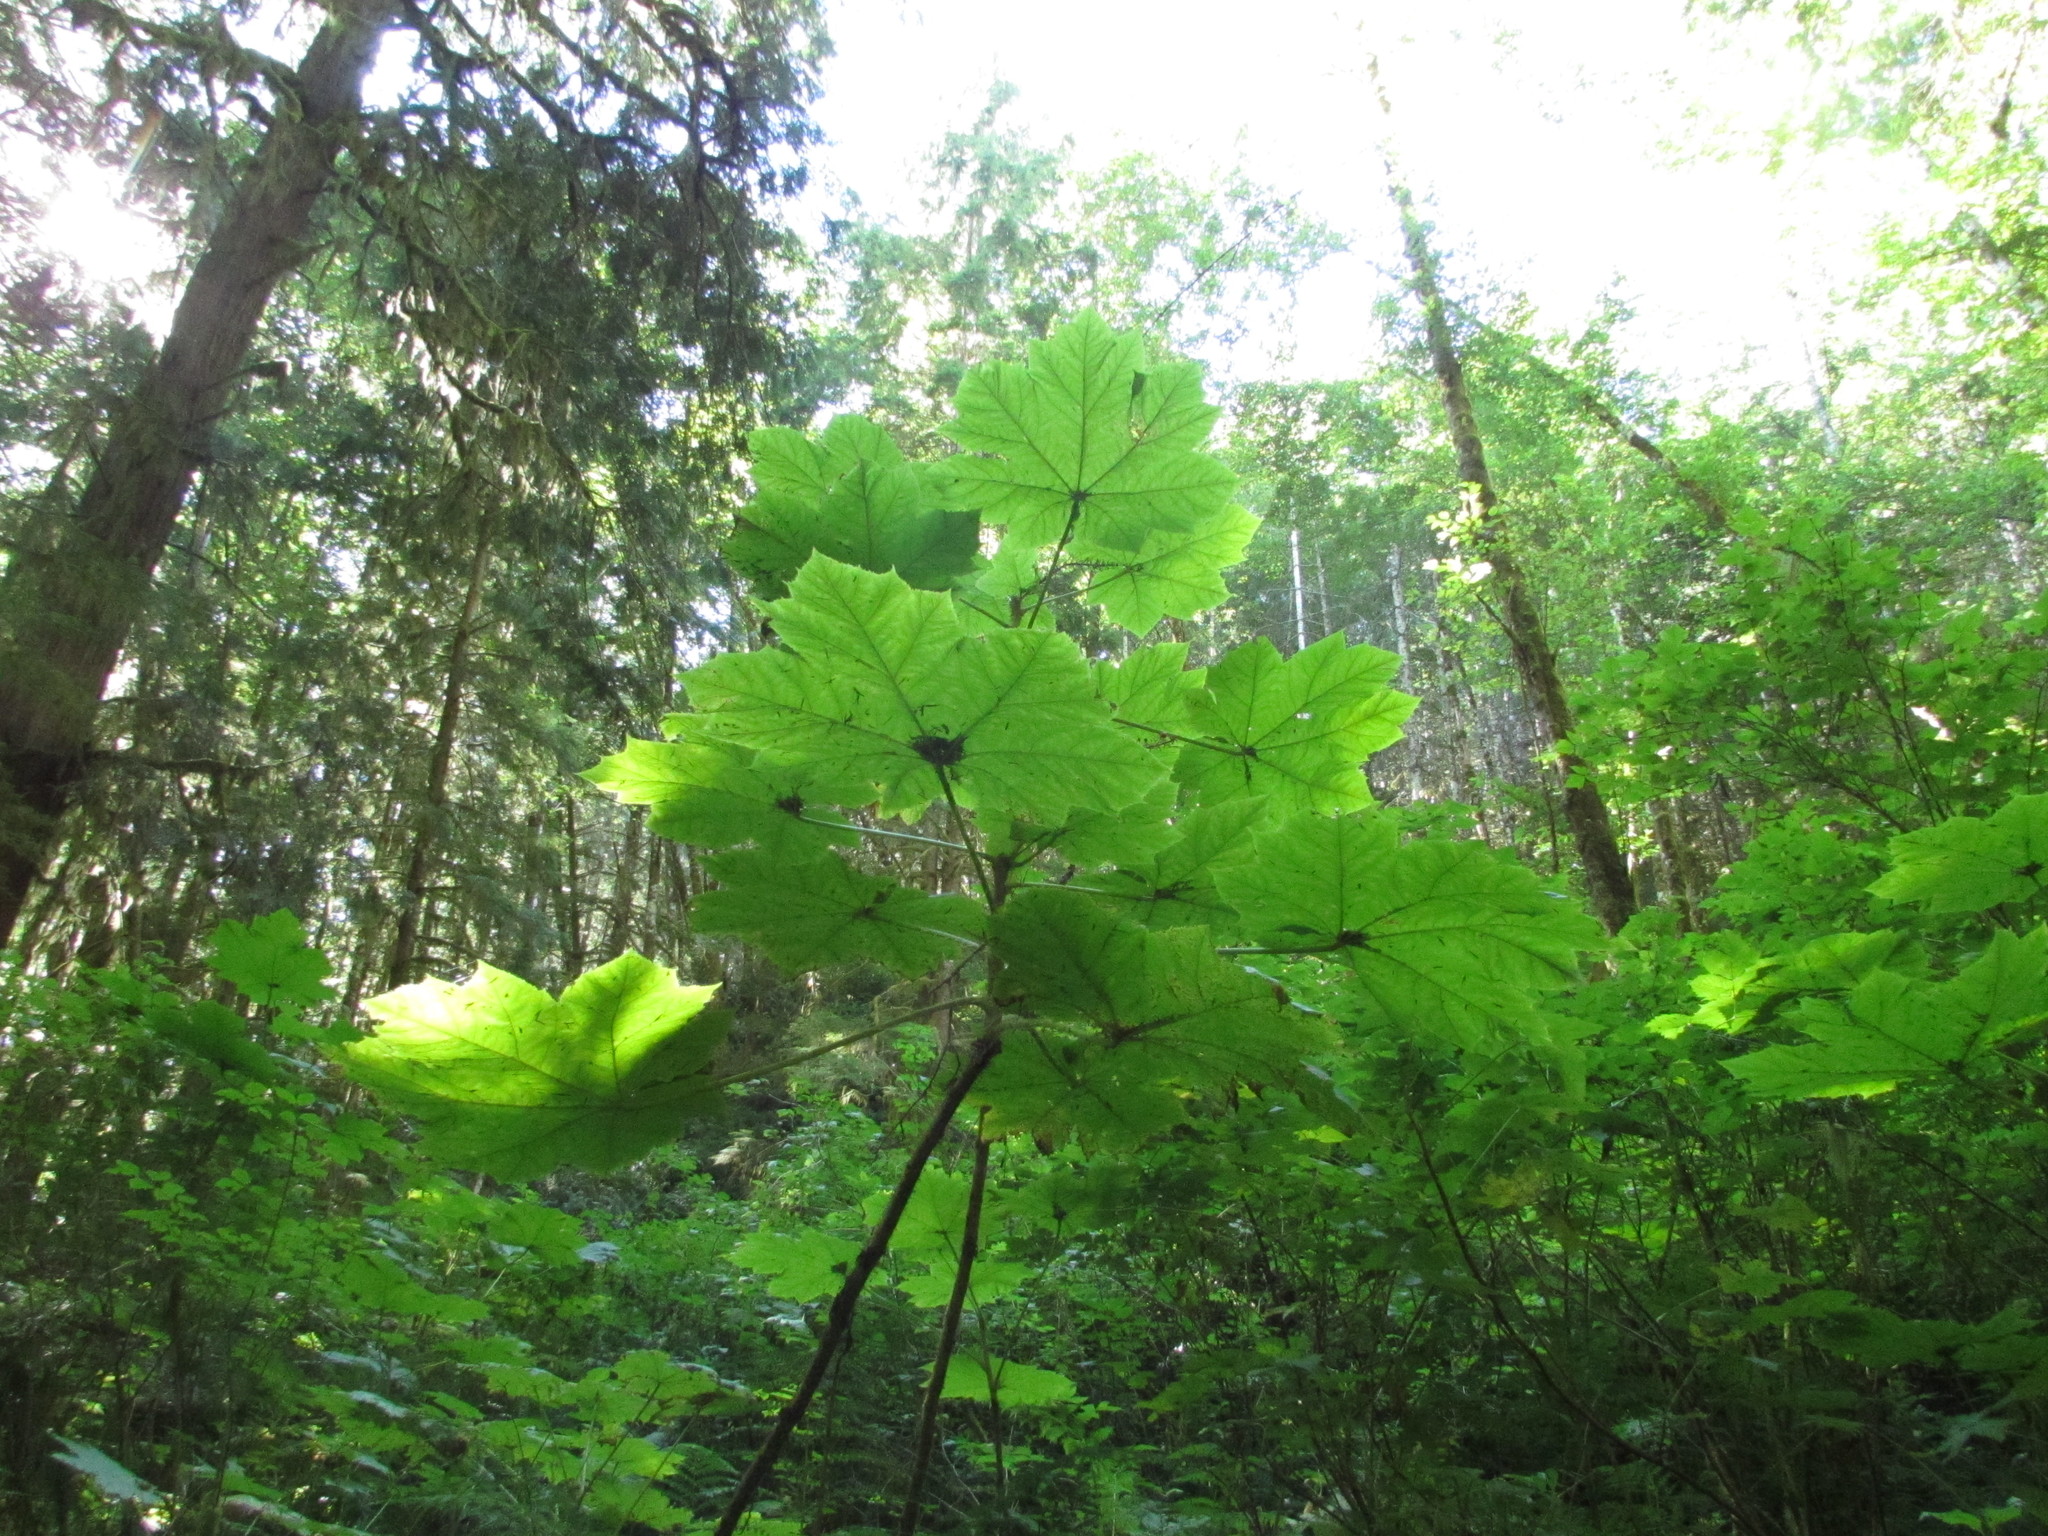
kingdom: Plantae
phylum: Tracheophyta
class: Magnoliopsida
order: Apiales
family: Araliaceae
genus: Oplopanax
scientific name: Oplopanax horridus
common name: Devil's walking-stick
